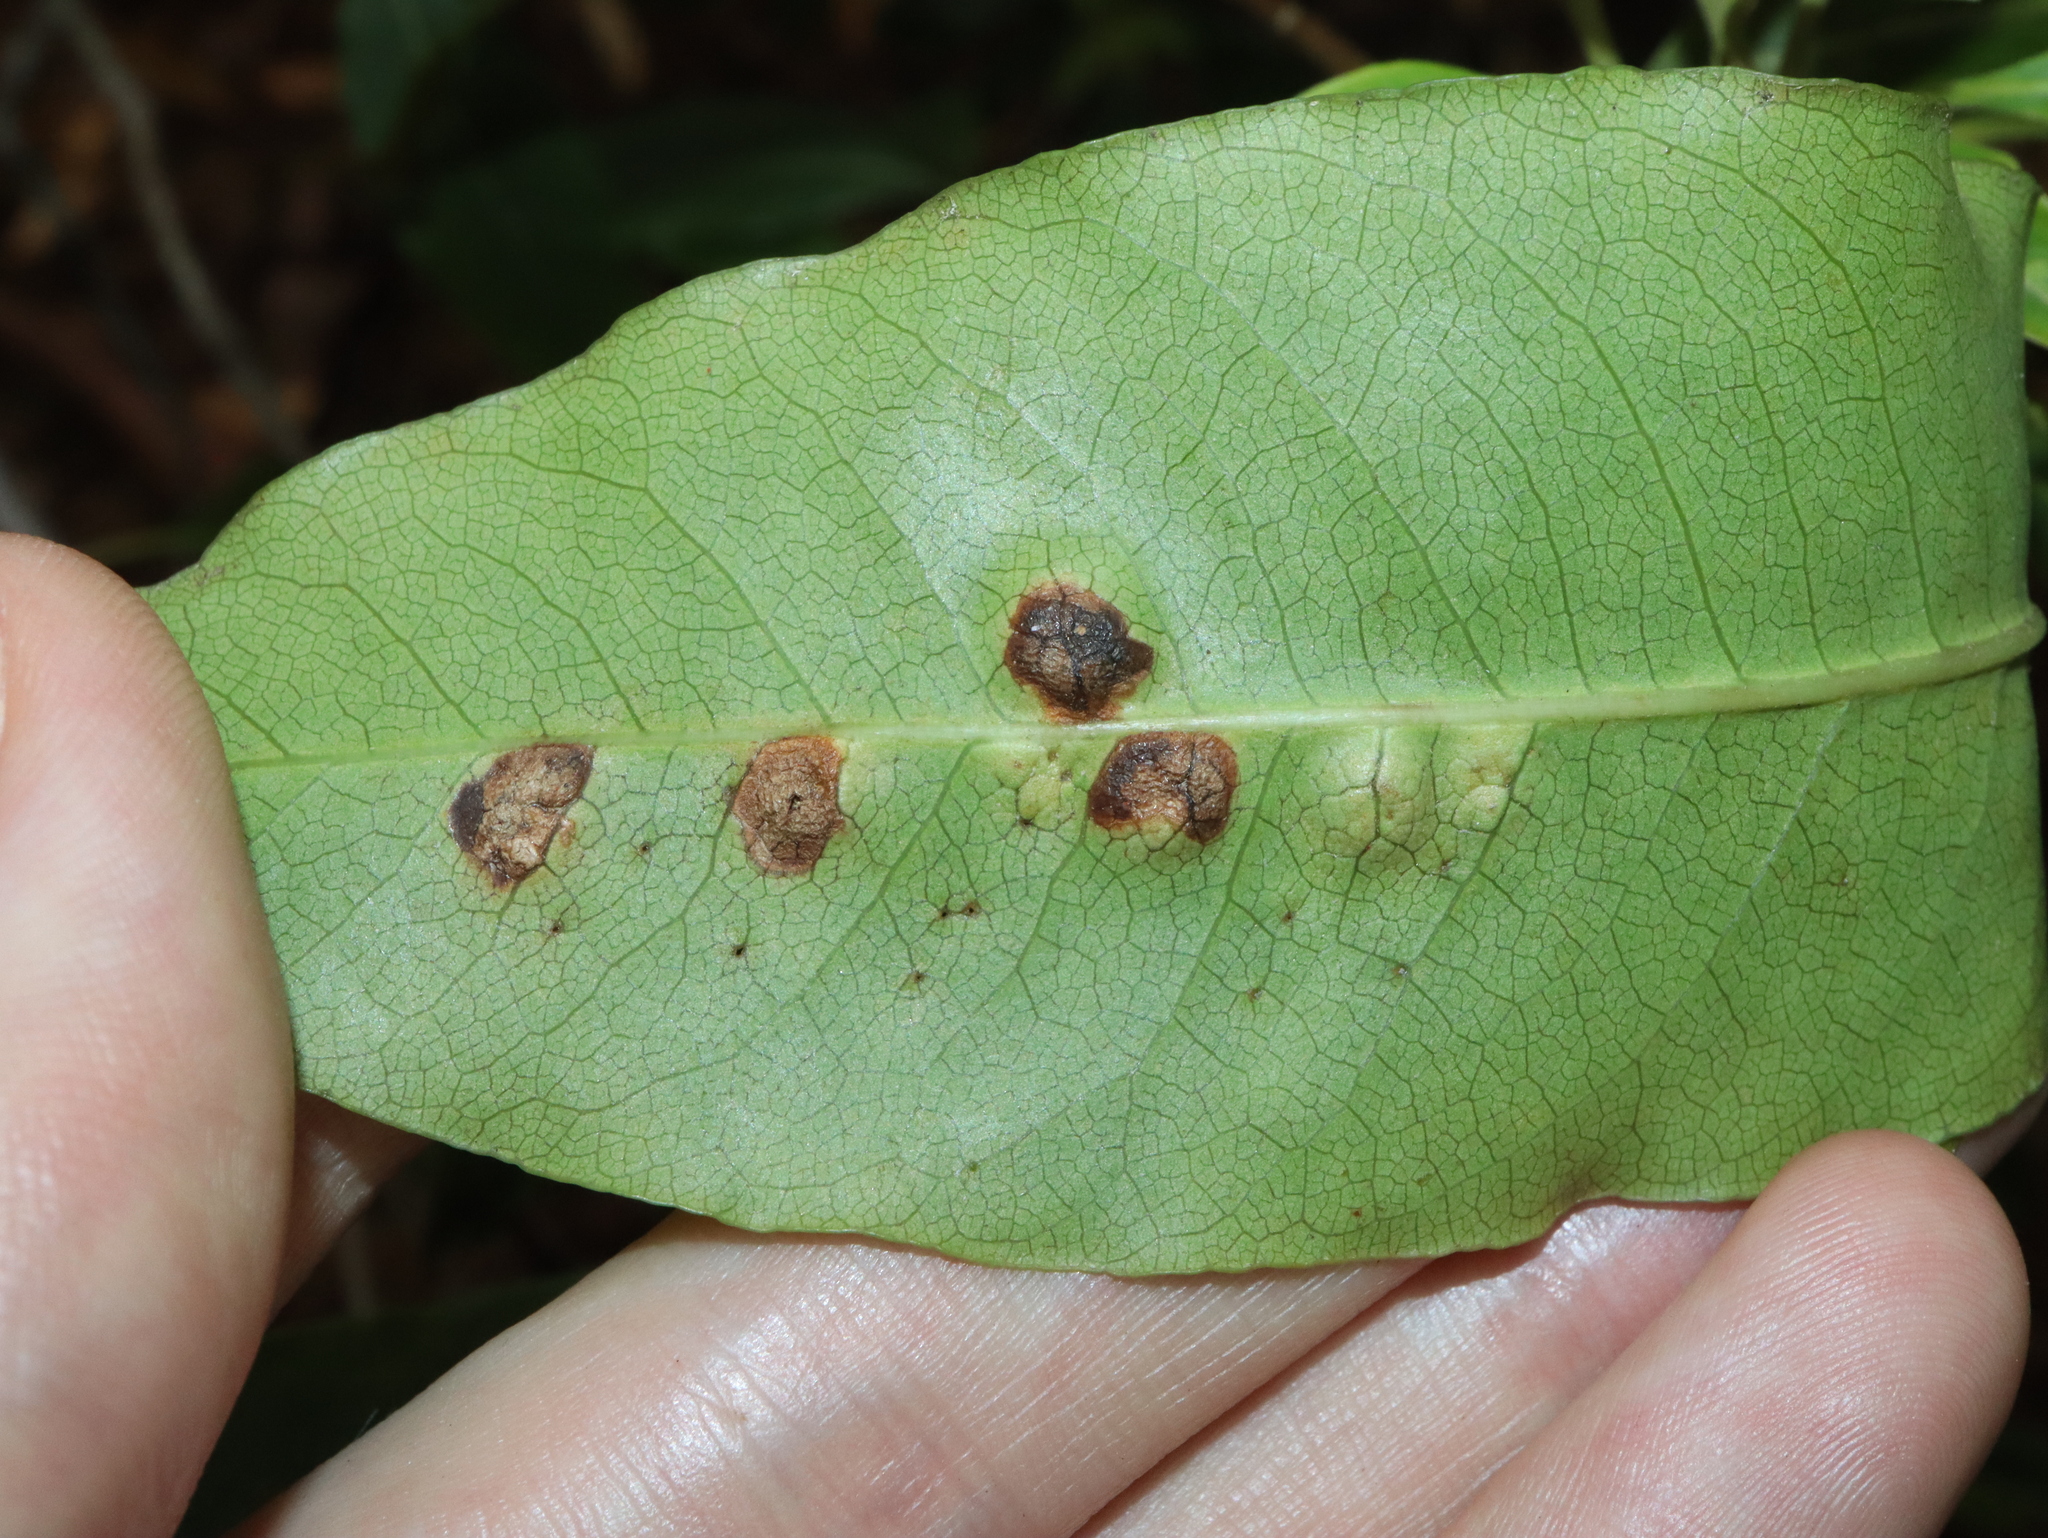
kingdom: Animalia
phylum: Arthropoda
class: Insecta
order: Diptera
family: Agromyzidae
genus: Phytoliriomyza
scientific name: Phytoliriomyza pittosporophylli
